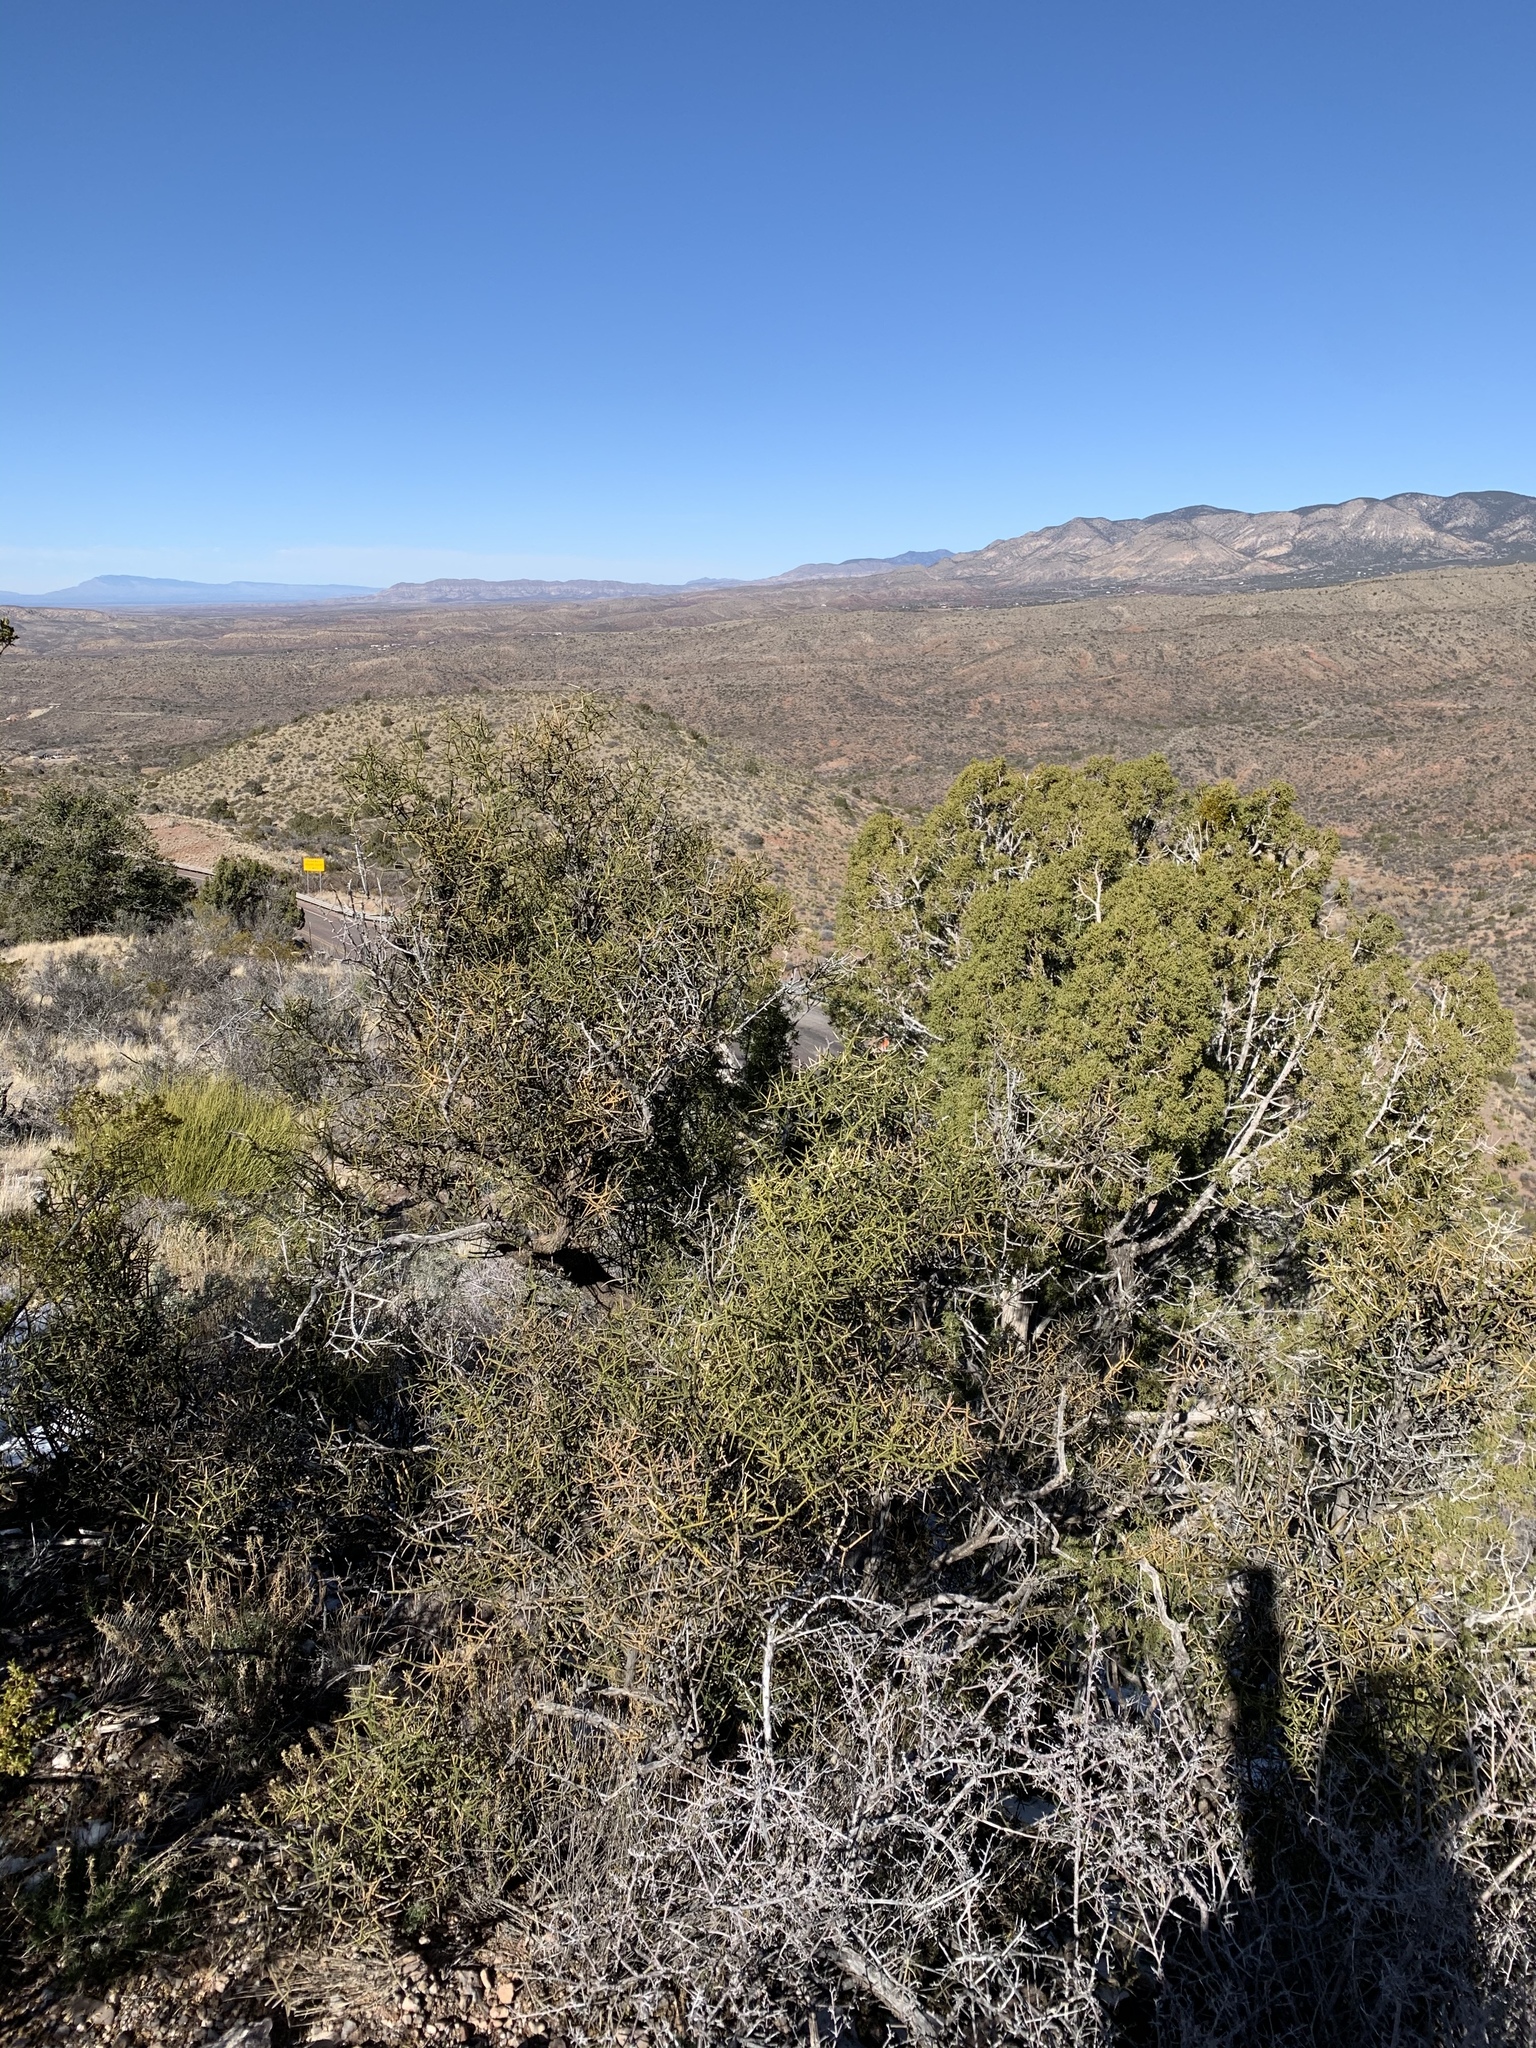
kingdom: Plantae
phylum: Tracheophyta
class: Magnoliopsida
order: Brassicales
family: Koeberliniaceae
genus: Koeberlinia
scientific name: Koeberlinia spinosa
